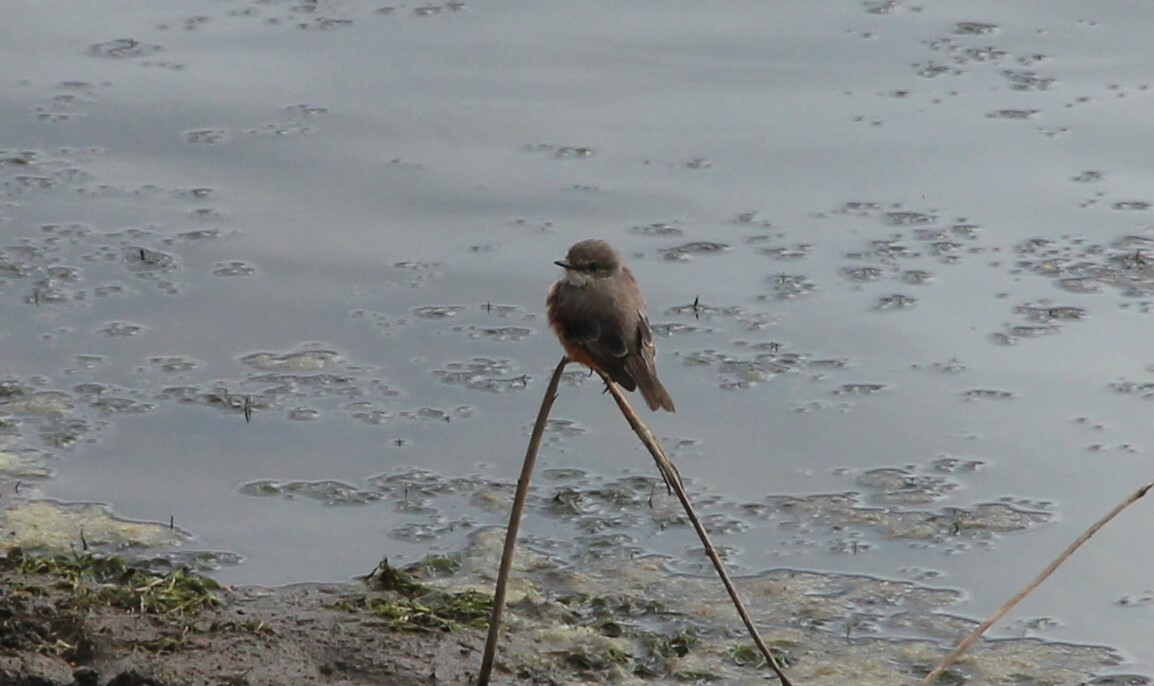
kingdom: Animalia
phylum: Chordata
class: Aves
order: Passeriformes
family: Tyrannidae
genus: Pyrocephalus
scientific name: Pyrocephalus rubinus
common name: Vermilion flycatcher
